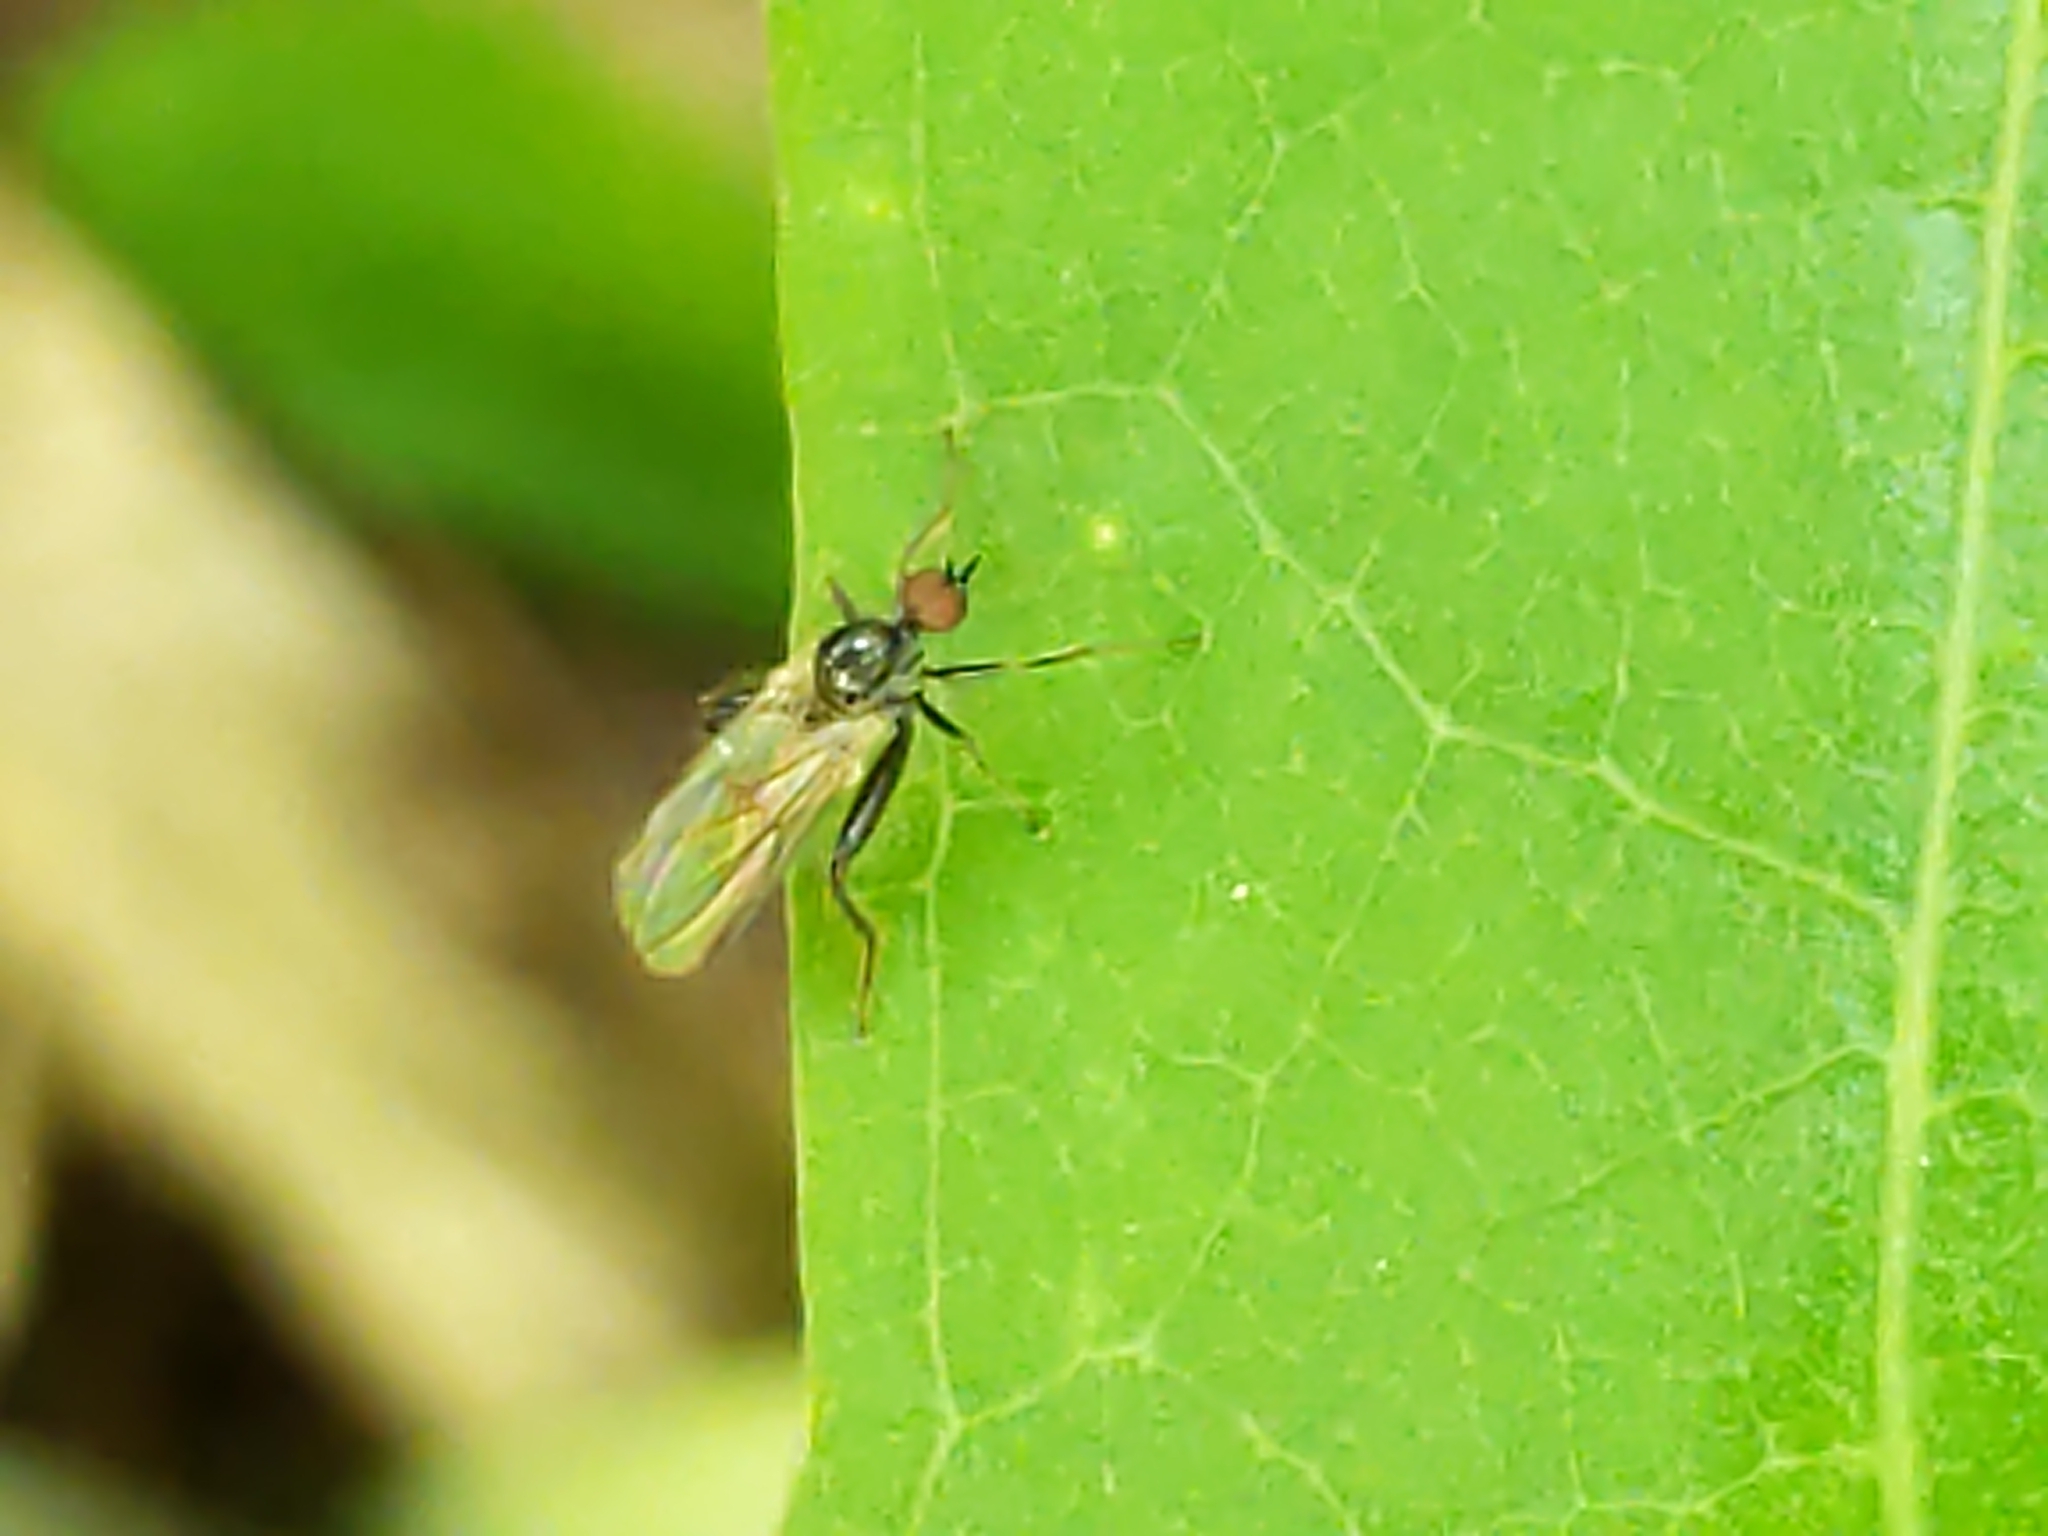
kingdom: Animalia
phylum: Arthropoda
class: Insecta
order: Diptera
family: Hybotidae
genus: Hybos
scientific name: Hybos reversus
